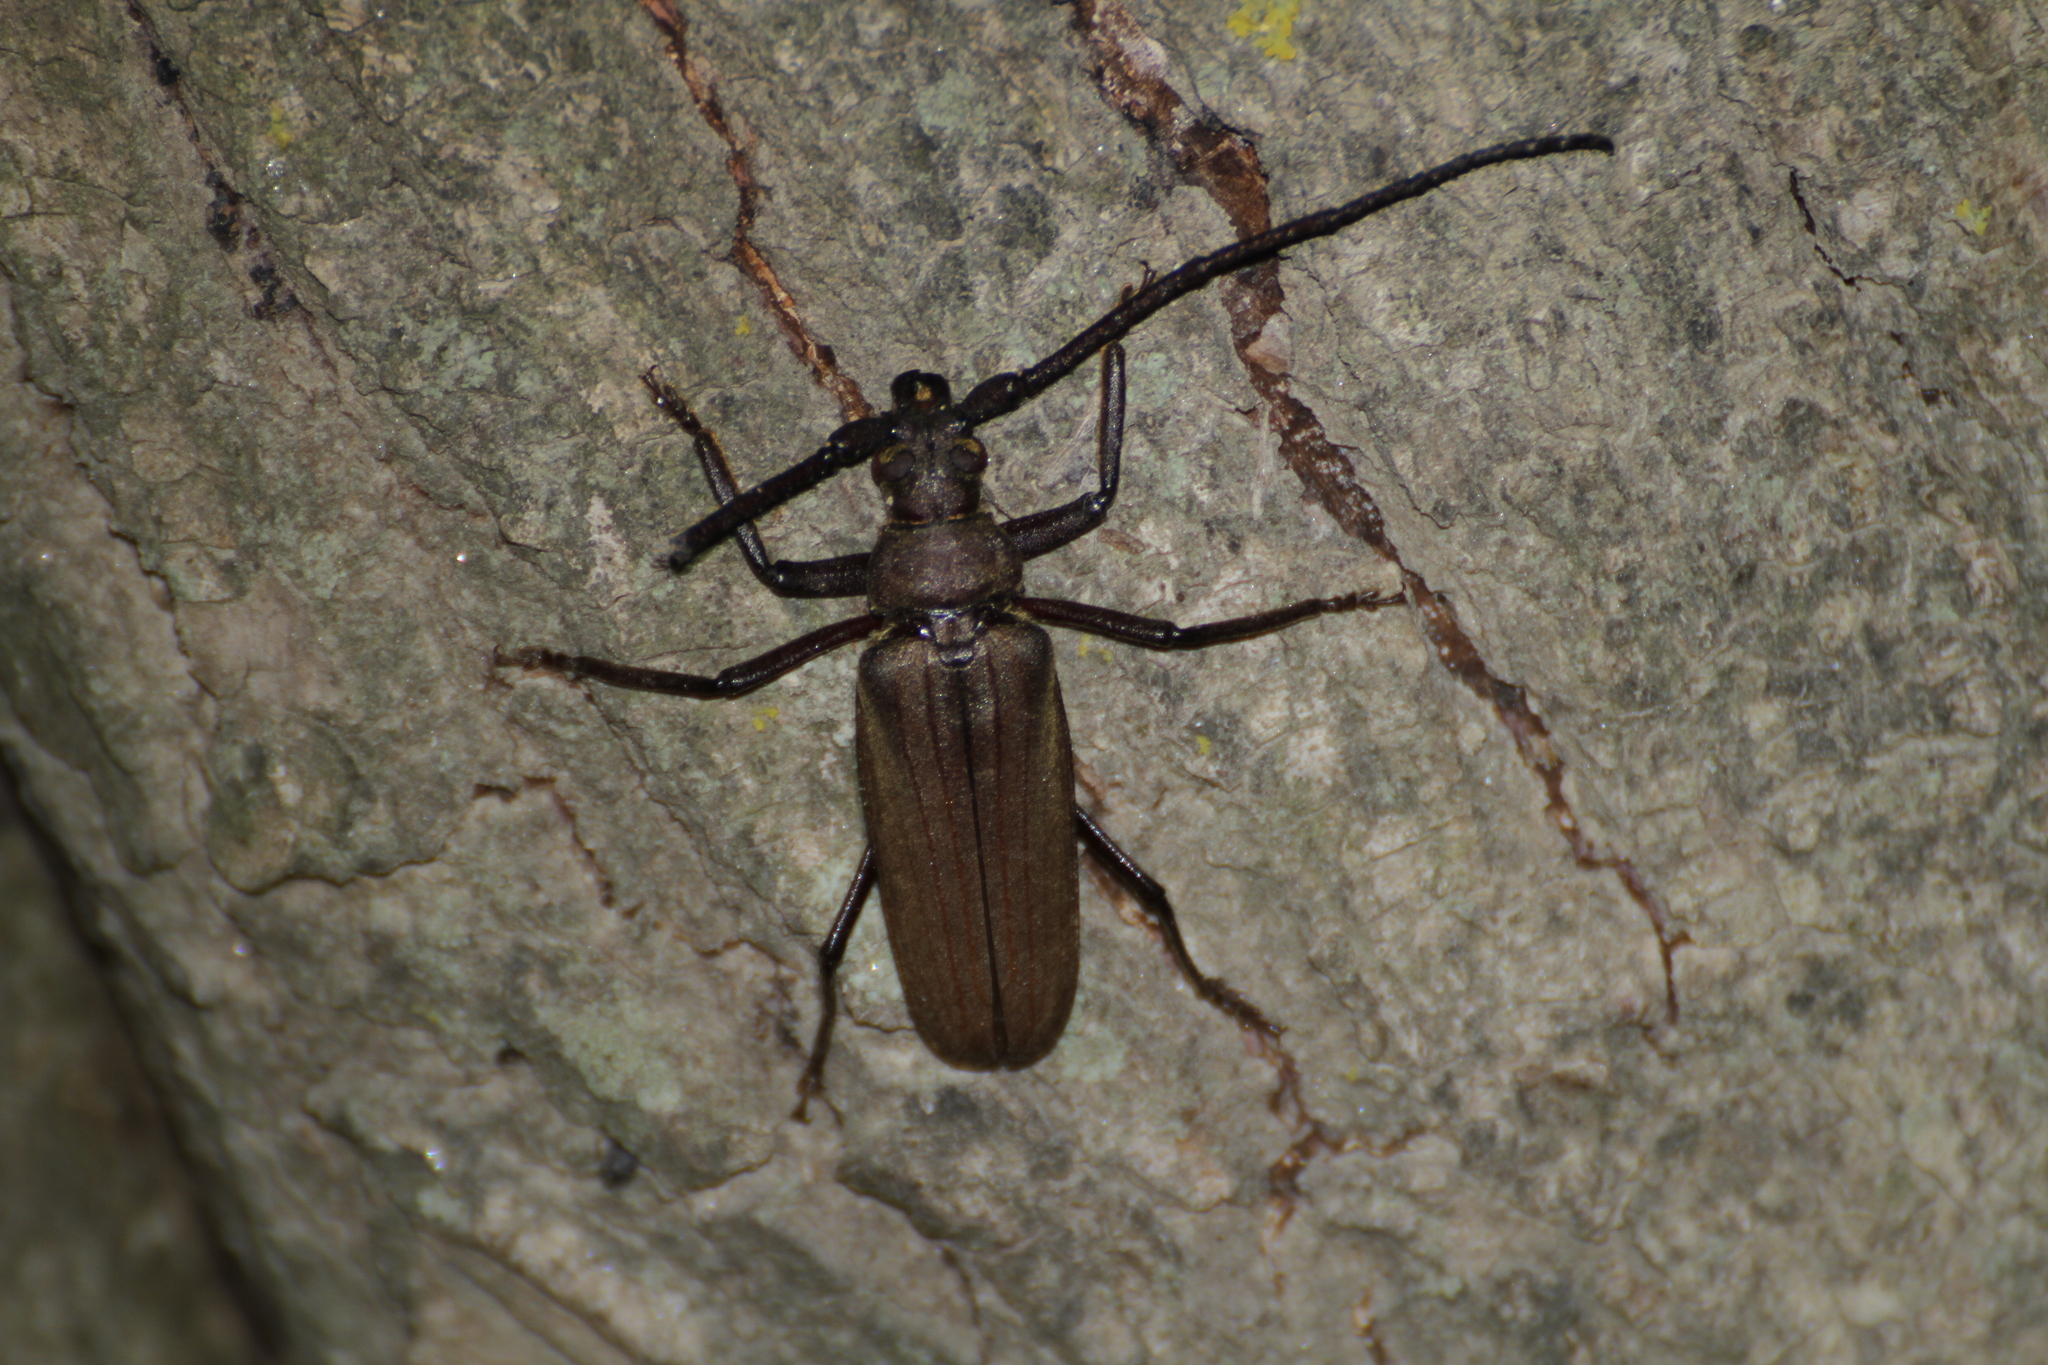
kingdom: Animalia
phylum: Arthropoda
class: Insecta
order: Coleoptera
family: Cerambycidae
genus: Aegosoma
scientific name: Aegosoma scabricorne
